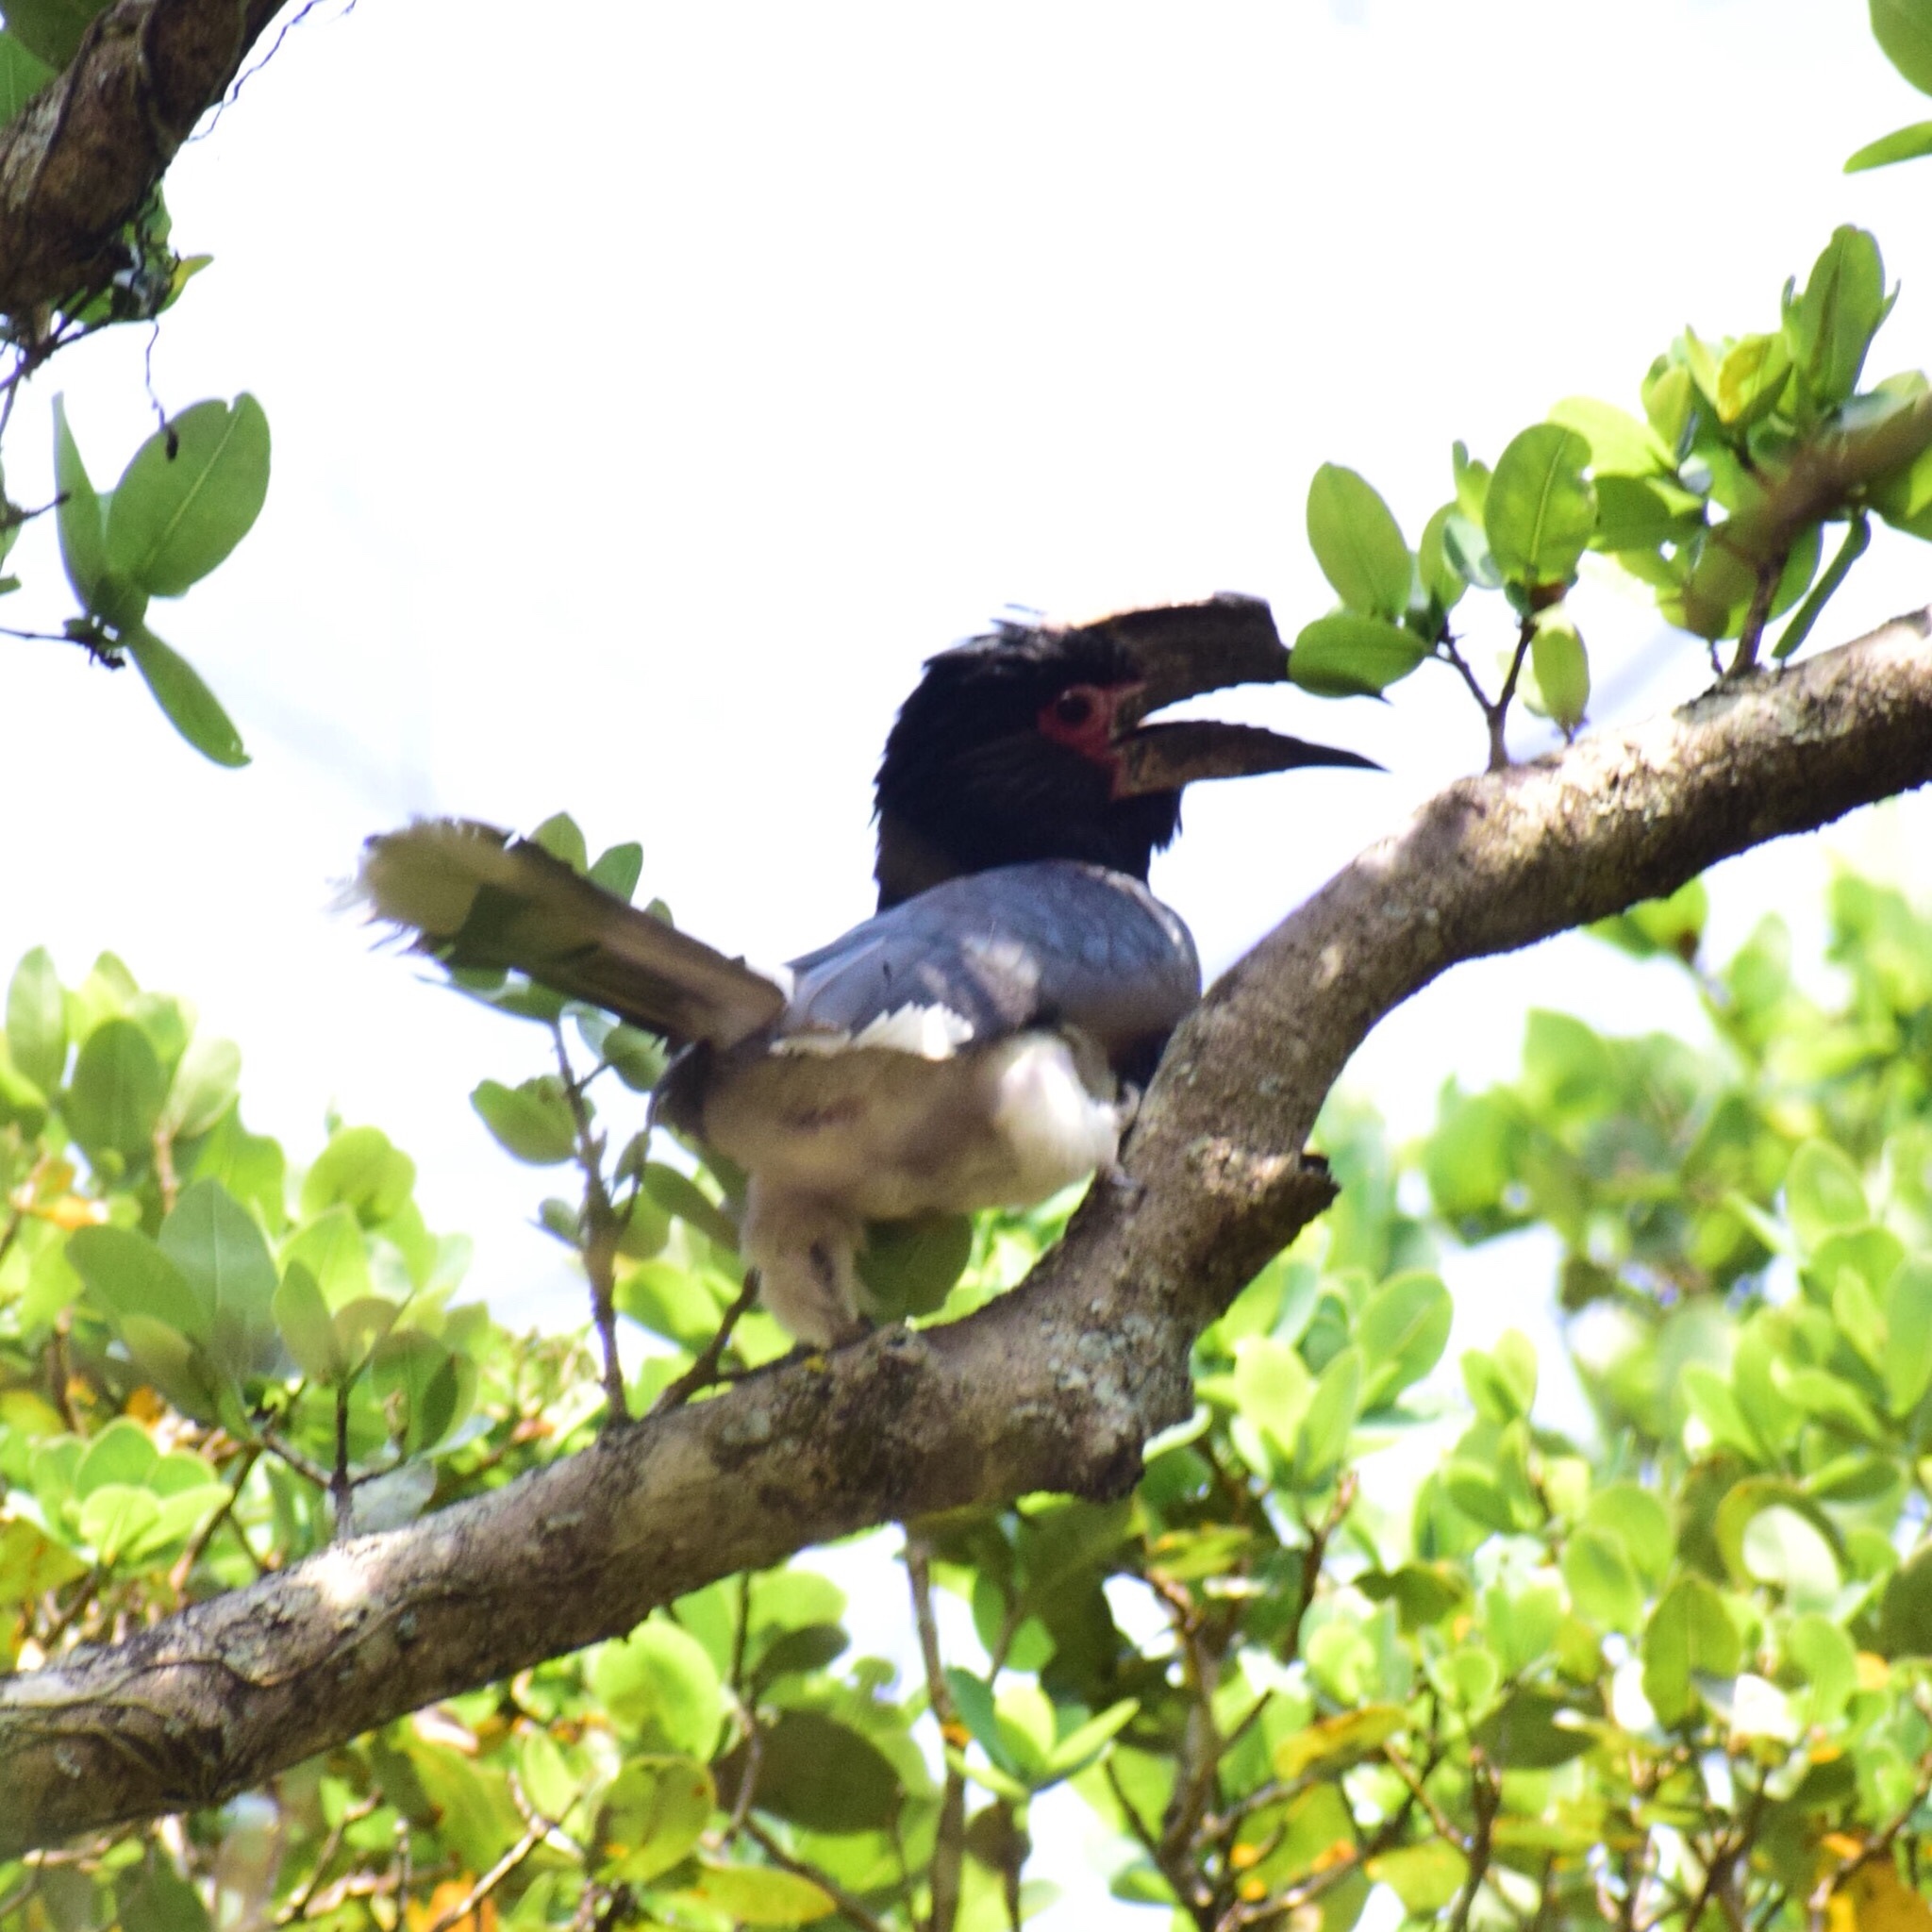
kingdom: Animalia
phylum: Chordata
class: Aves
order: Bucerotiformes
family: Bucerotidae
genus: Bycanistes
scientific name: Bycanistes bucinator
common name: Trumpeter hornbill
